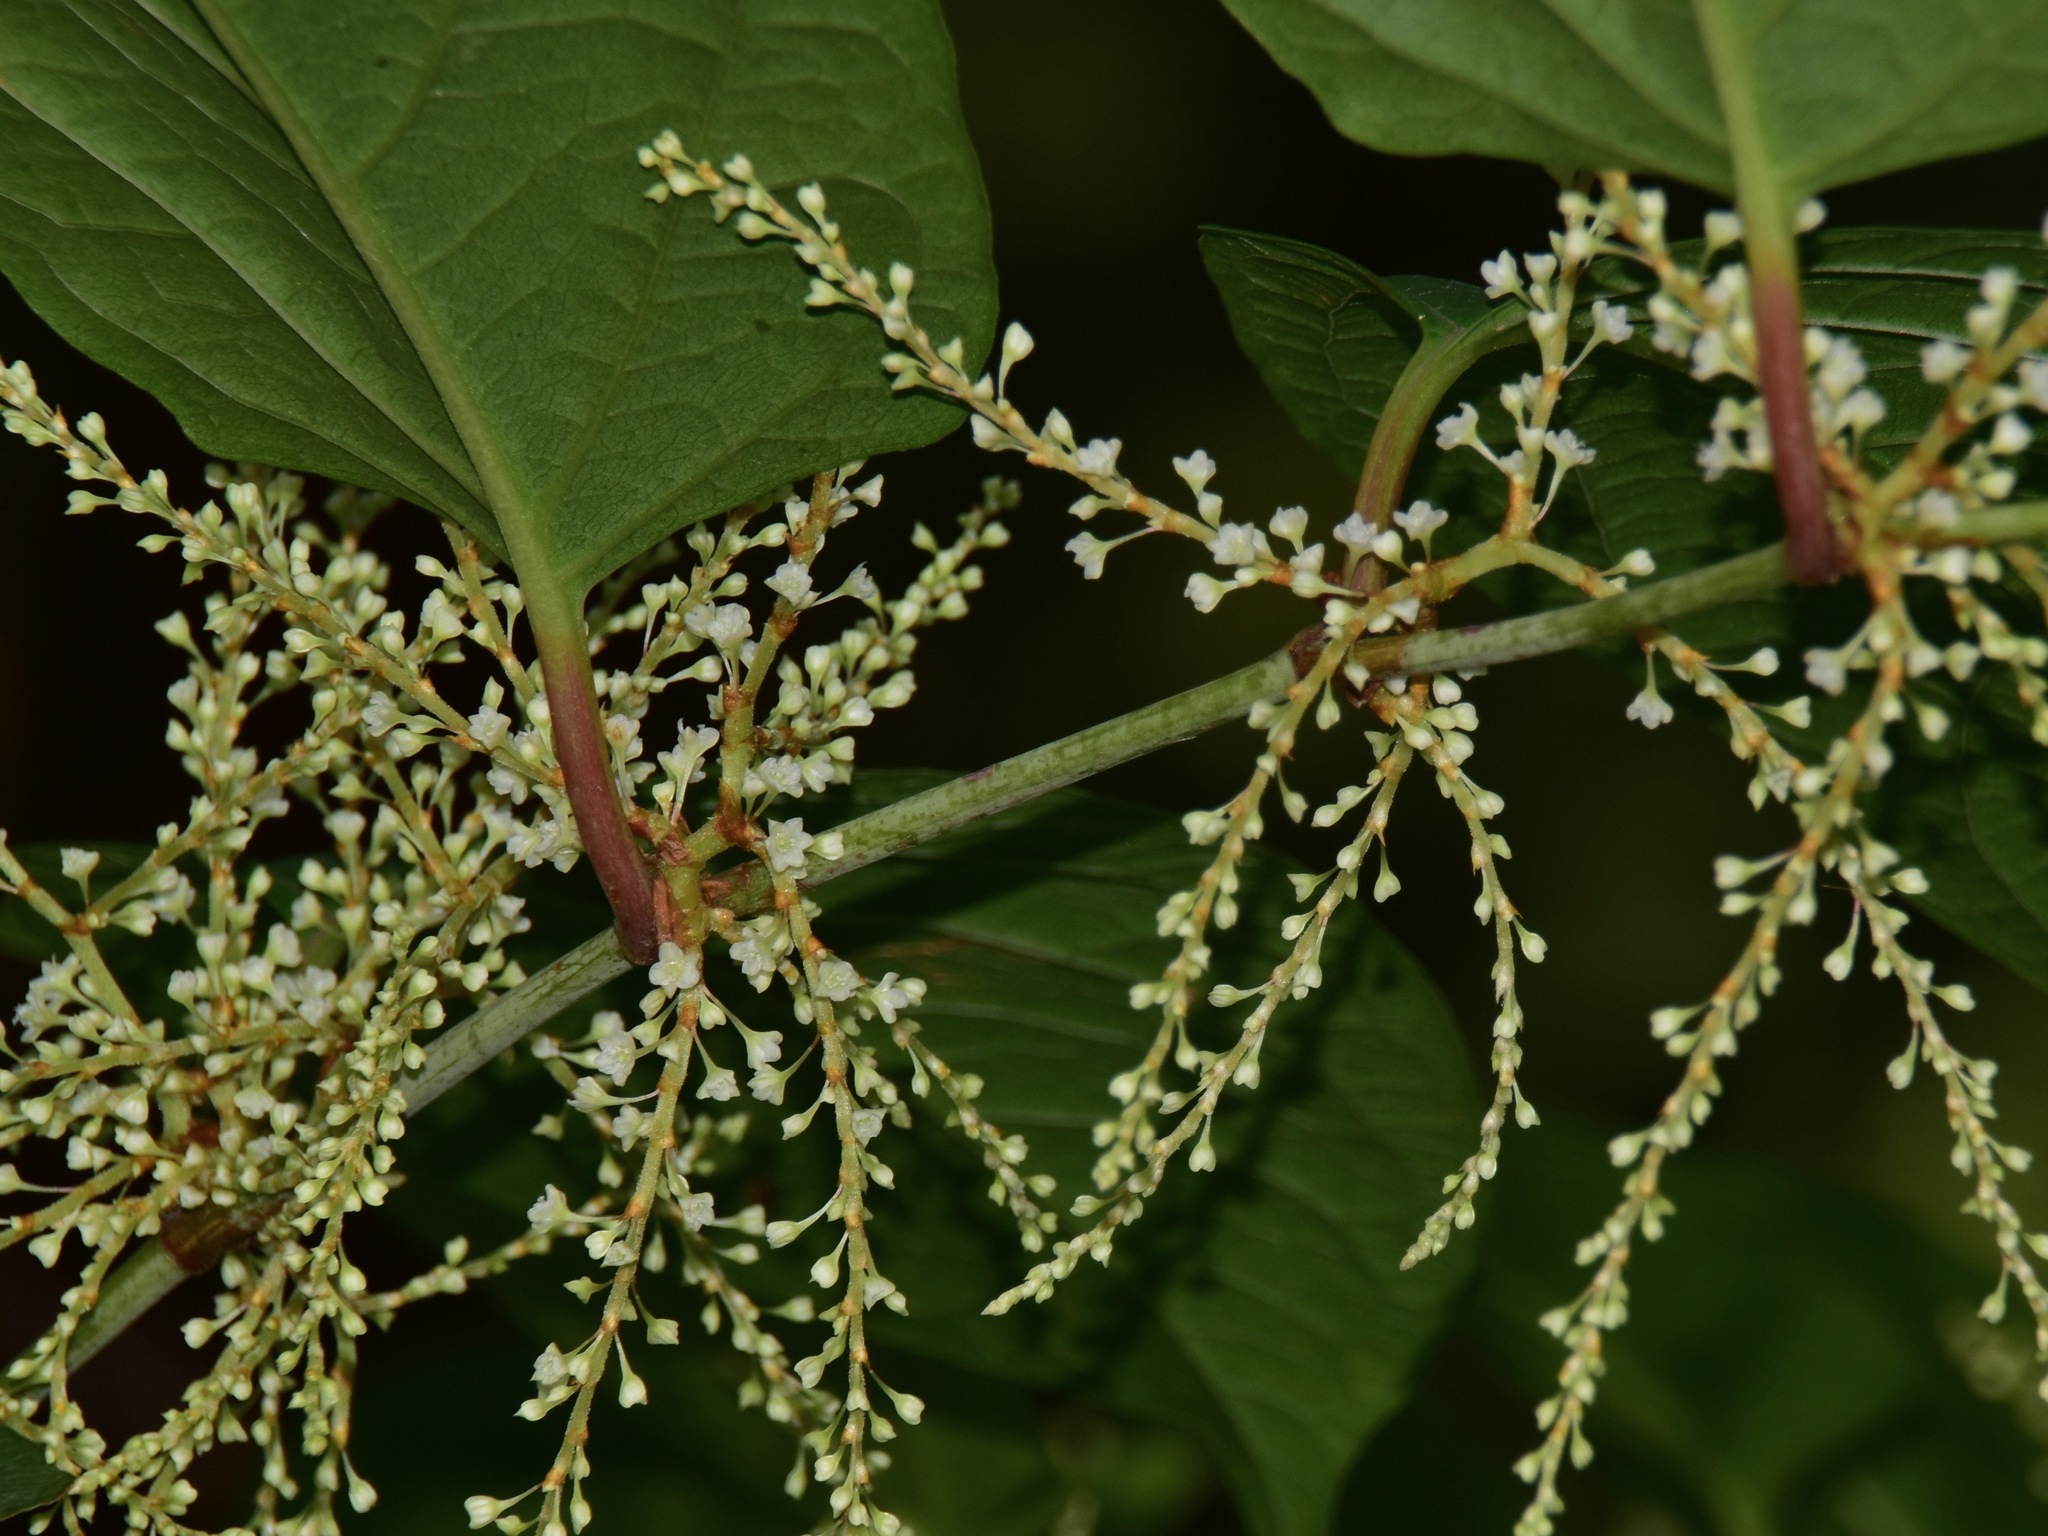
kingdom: Plantae
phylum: Tracheophyta
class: Magnoliopsida
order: Caryophyllales
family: Polygonaceae
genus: Reynoutria
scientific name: Reynoutria japonica
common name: Japanese knotweed
